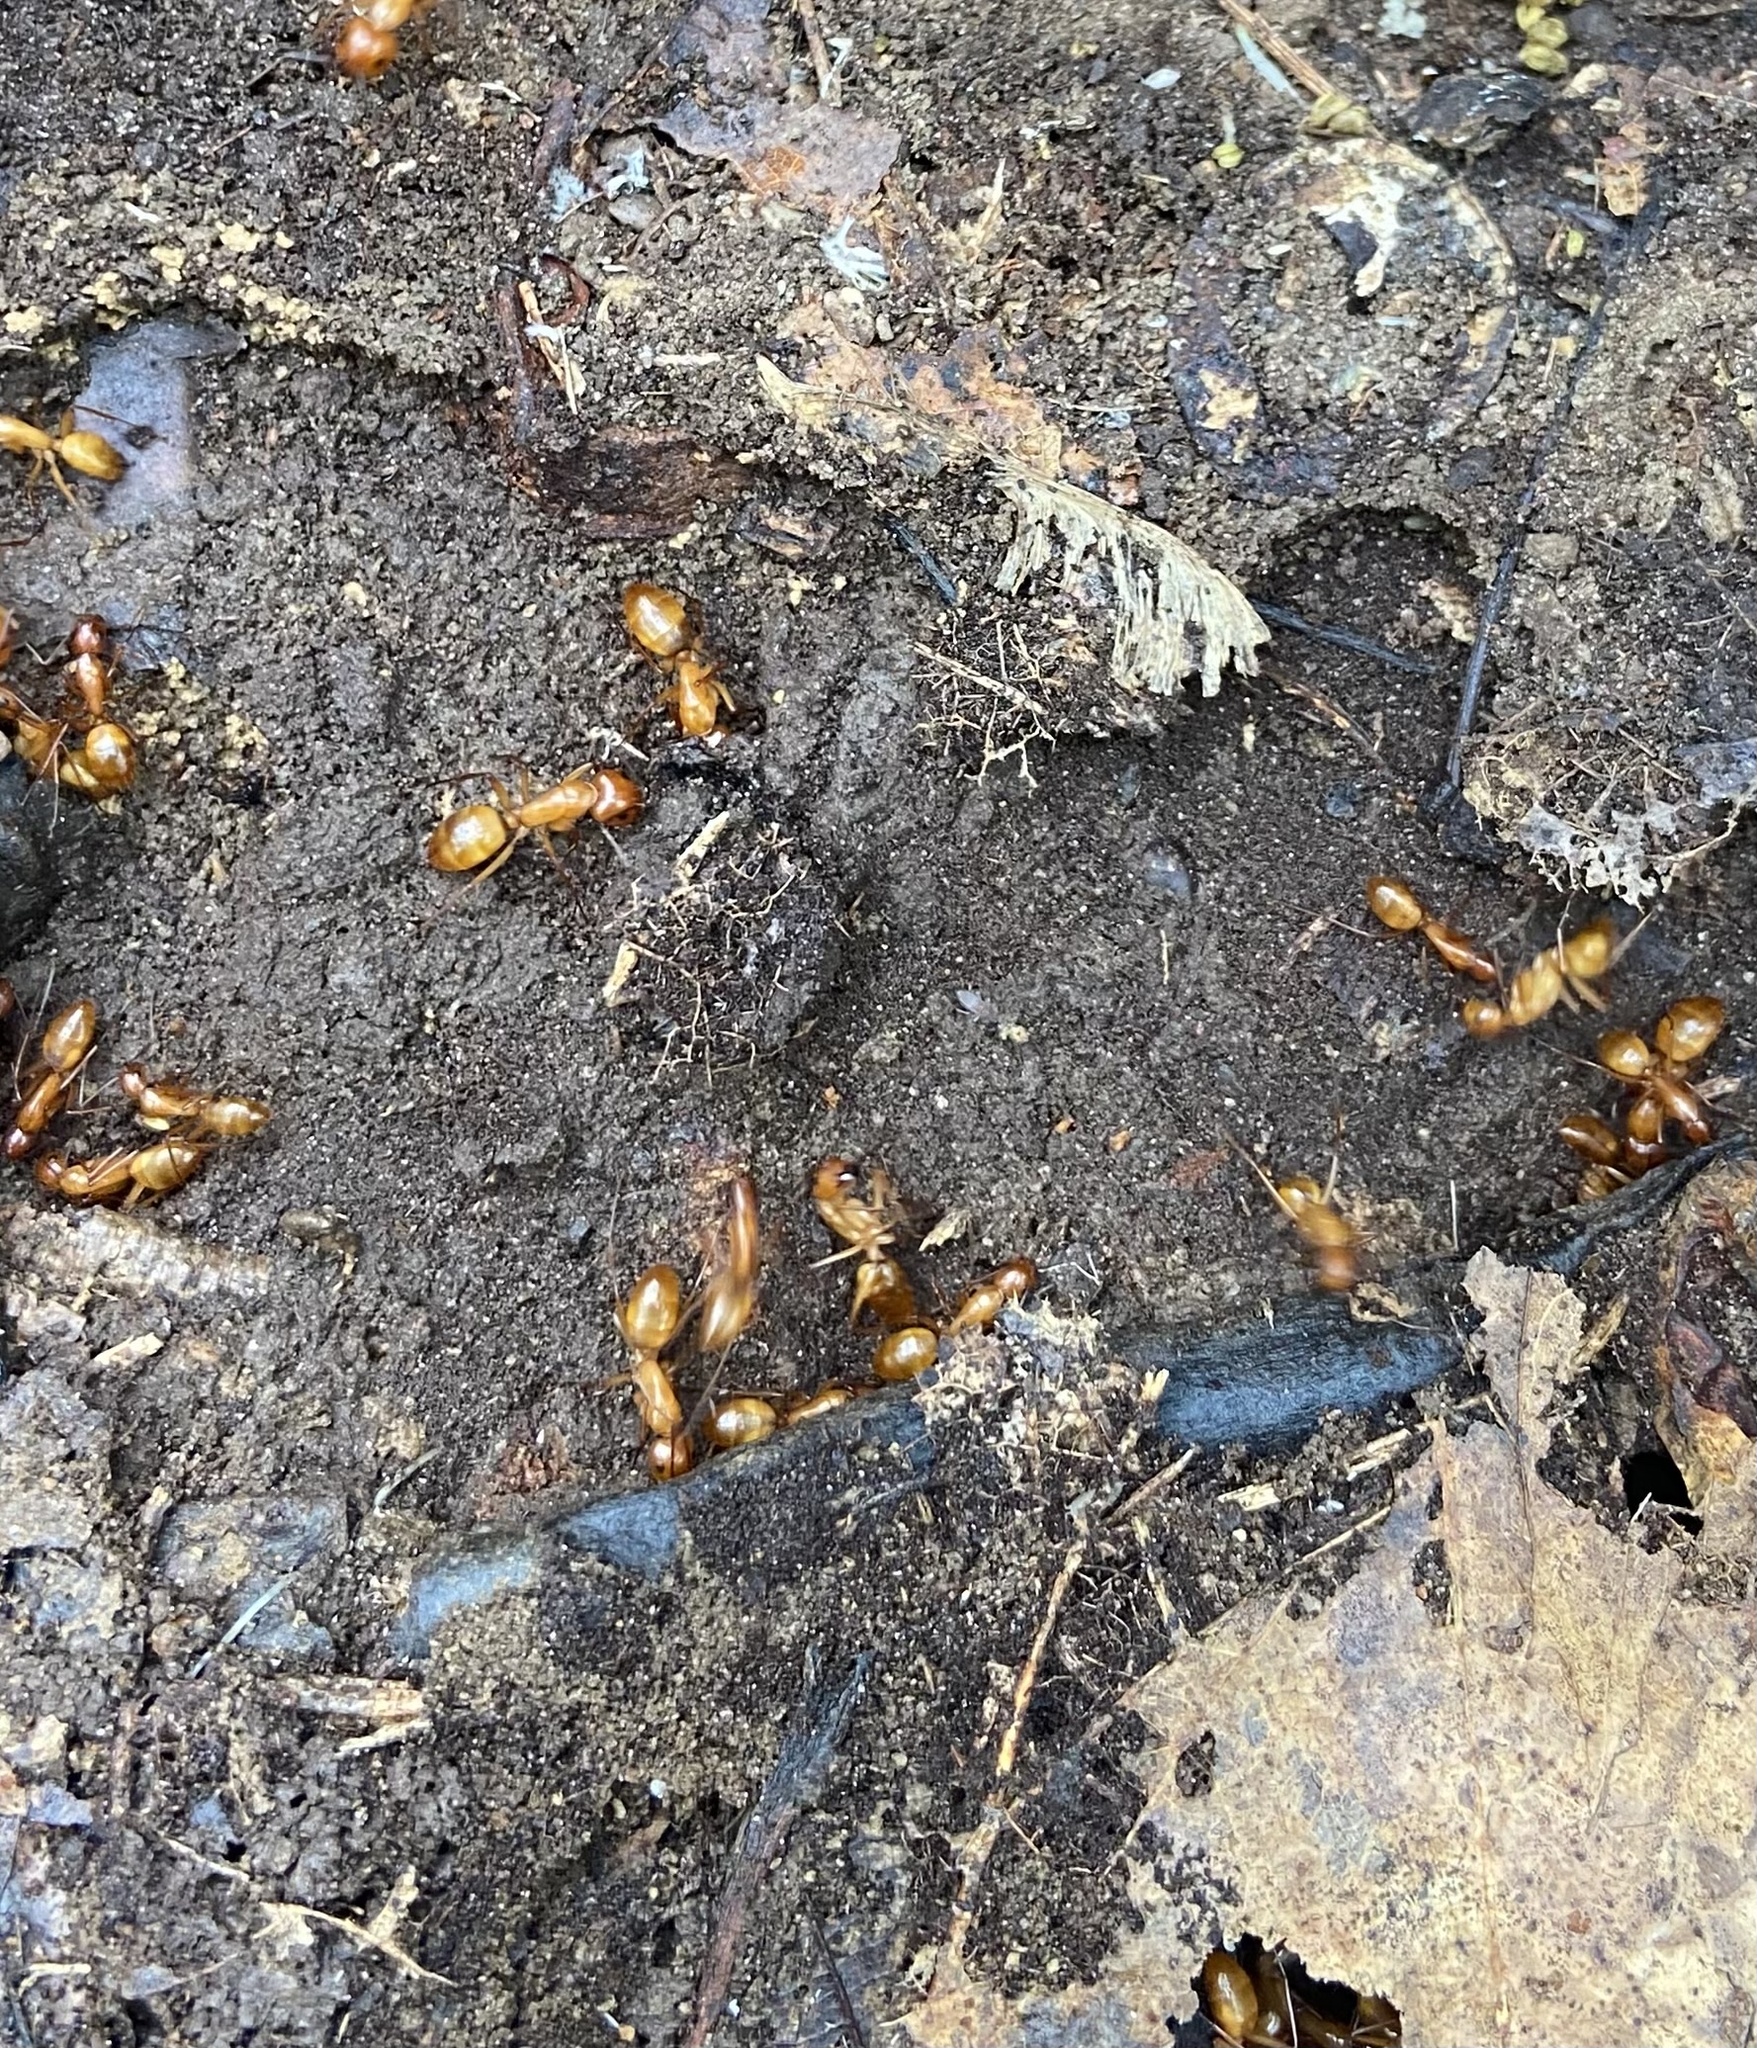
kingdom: Animalia
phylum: Arthropoda
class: Insecta
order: Hymenoptera
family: Formicidae
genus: Camponotus
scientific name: Camponotus castaneus
